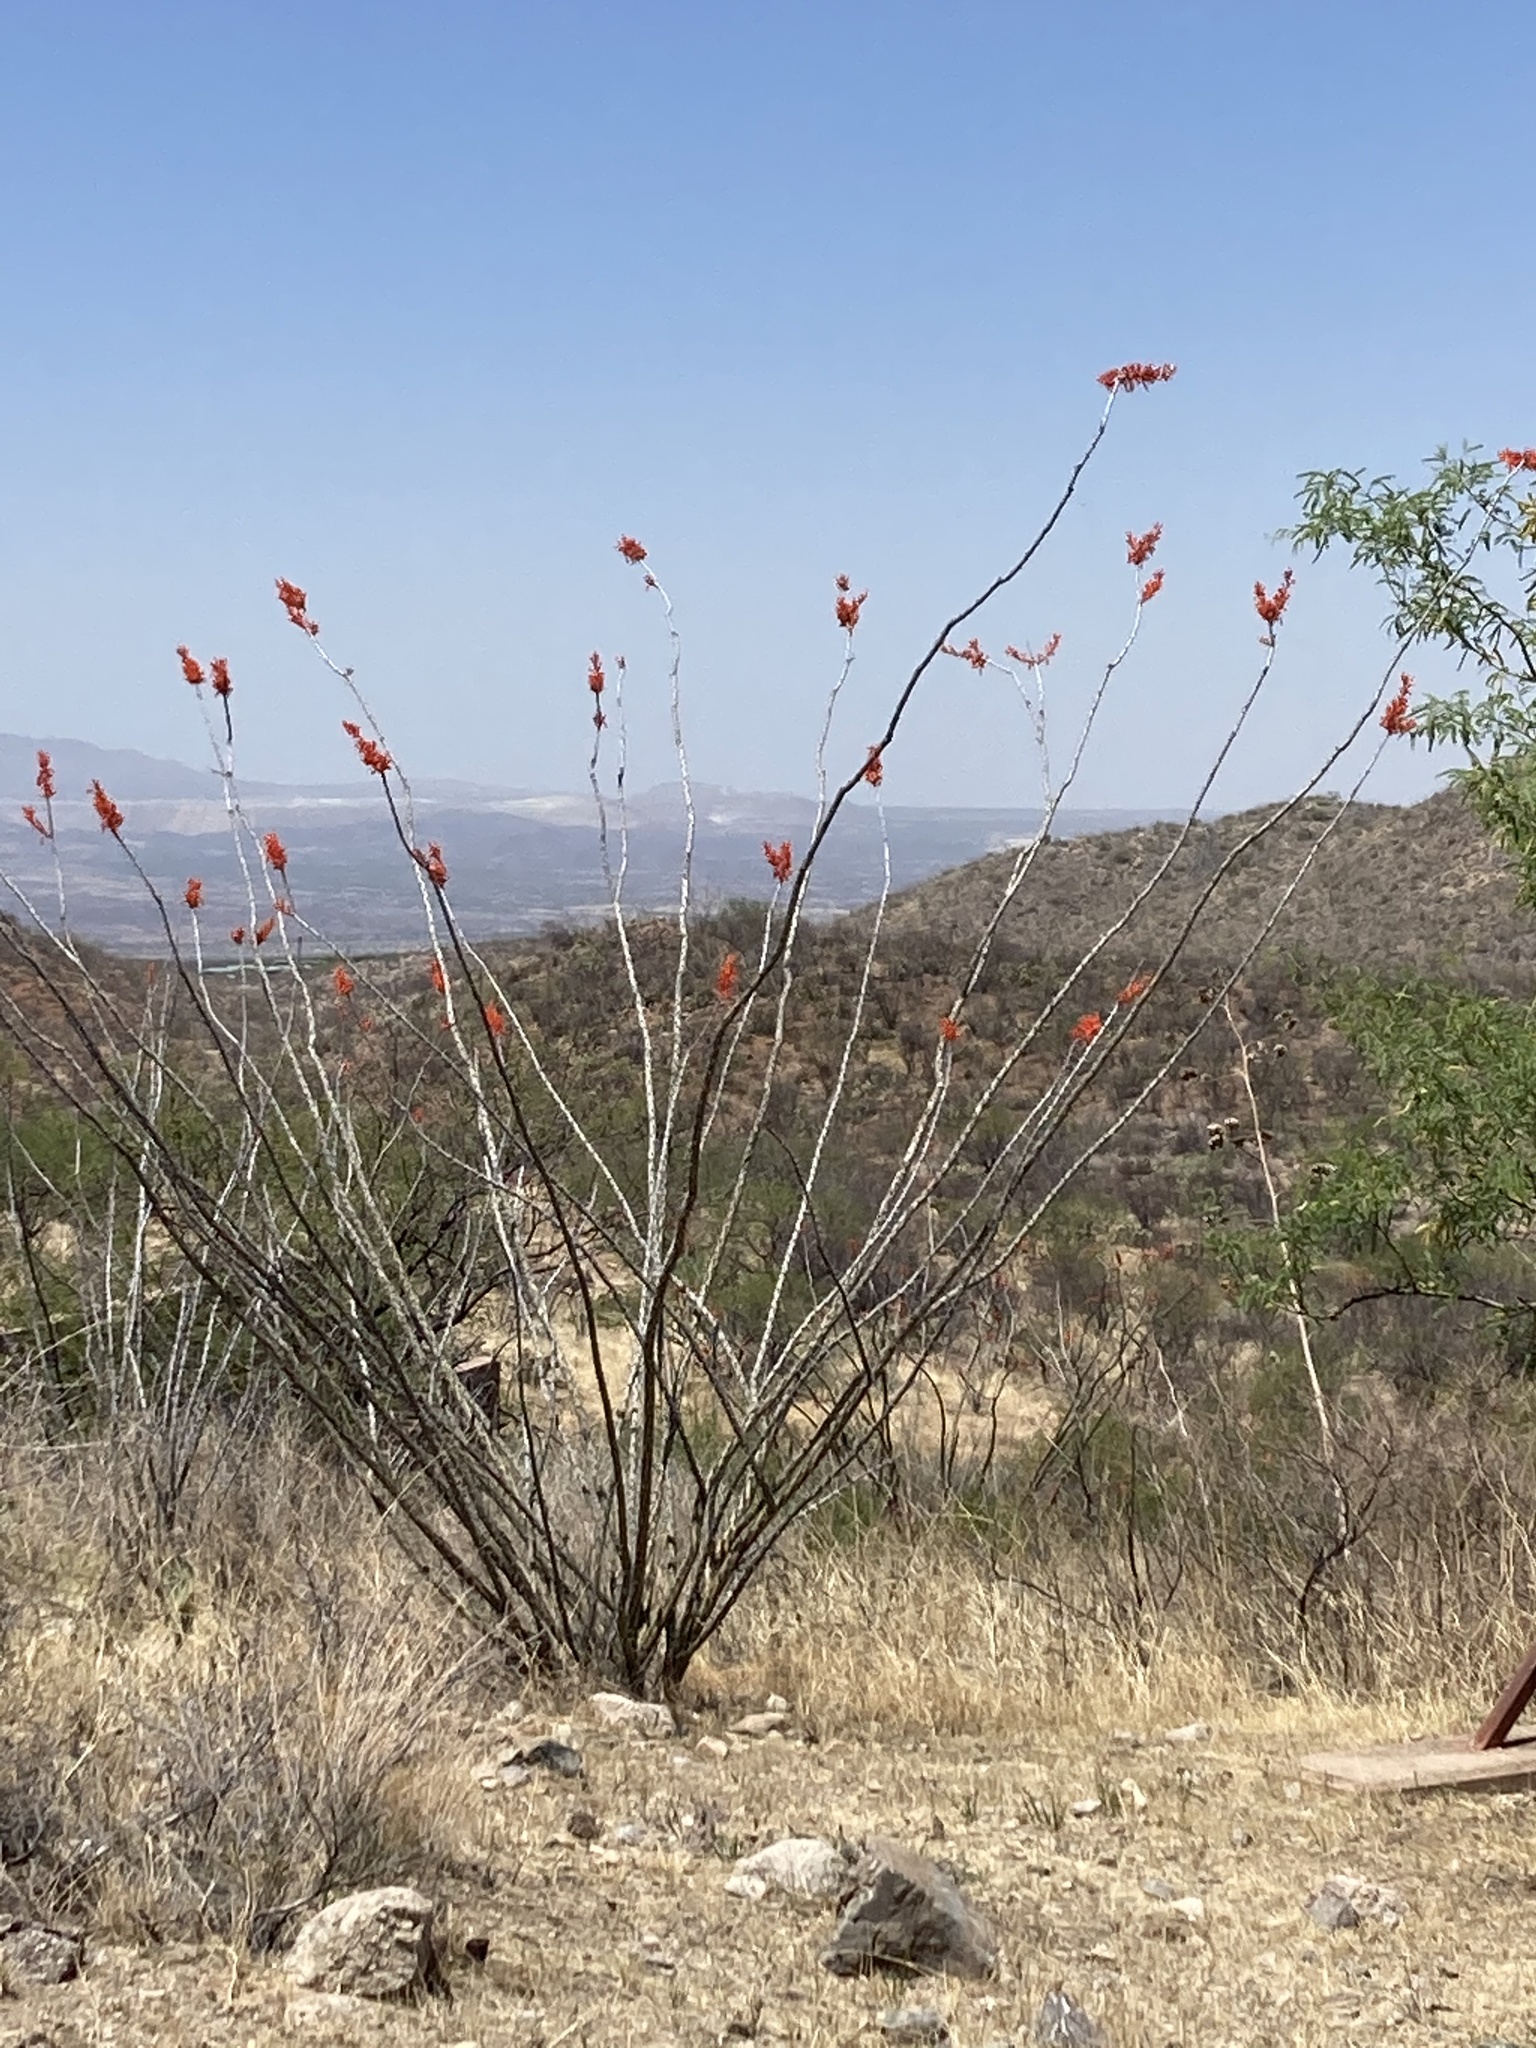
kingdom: Plantae
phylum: Tracheophyta
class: Magnoliopsida
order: Ericales
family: Fouquieriaceae
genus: Fouquieria
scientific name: Fouquieria splendens
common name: Vine-cactus
